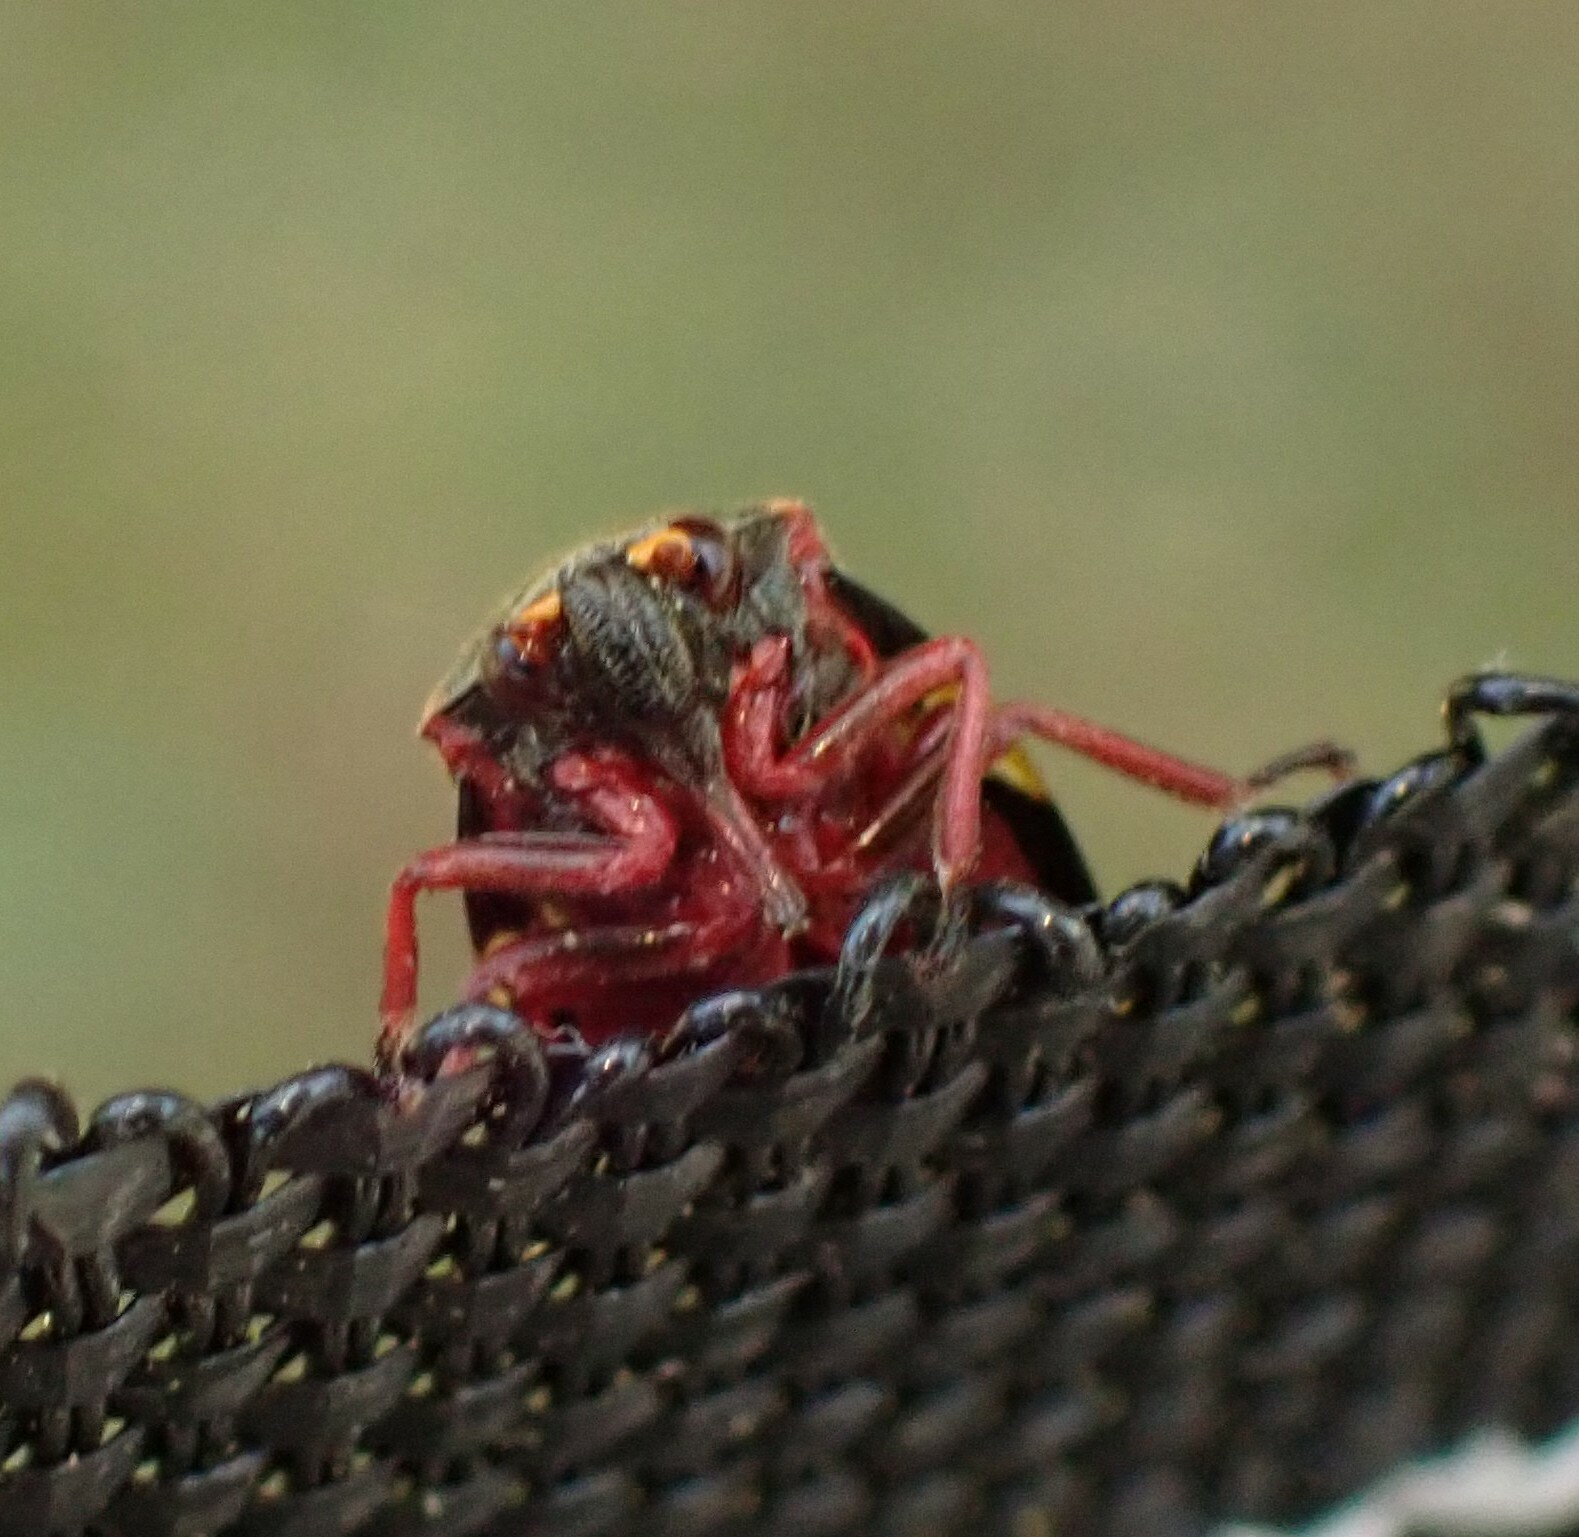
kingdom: Animalia
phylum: Arthropoda
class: Insecta
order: Hemiptera
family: Cercopidae
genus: Deois
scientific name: Deois flavopicta
